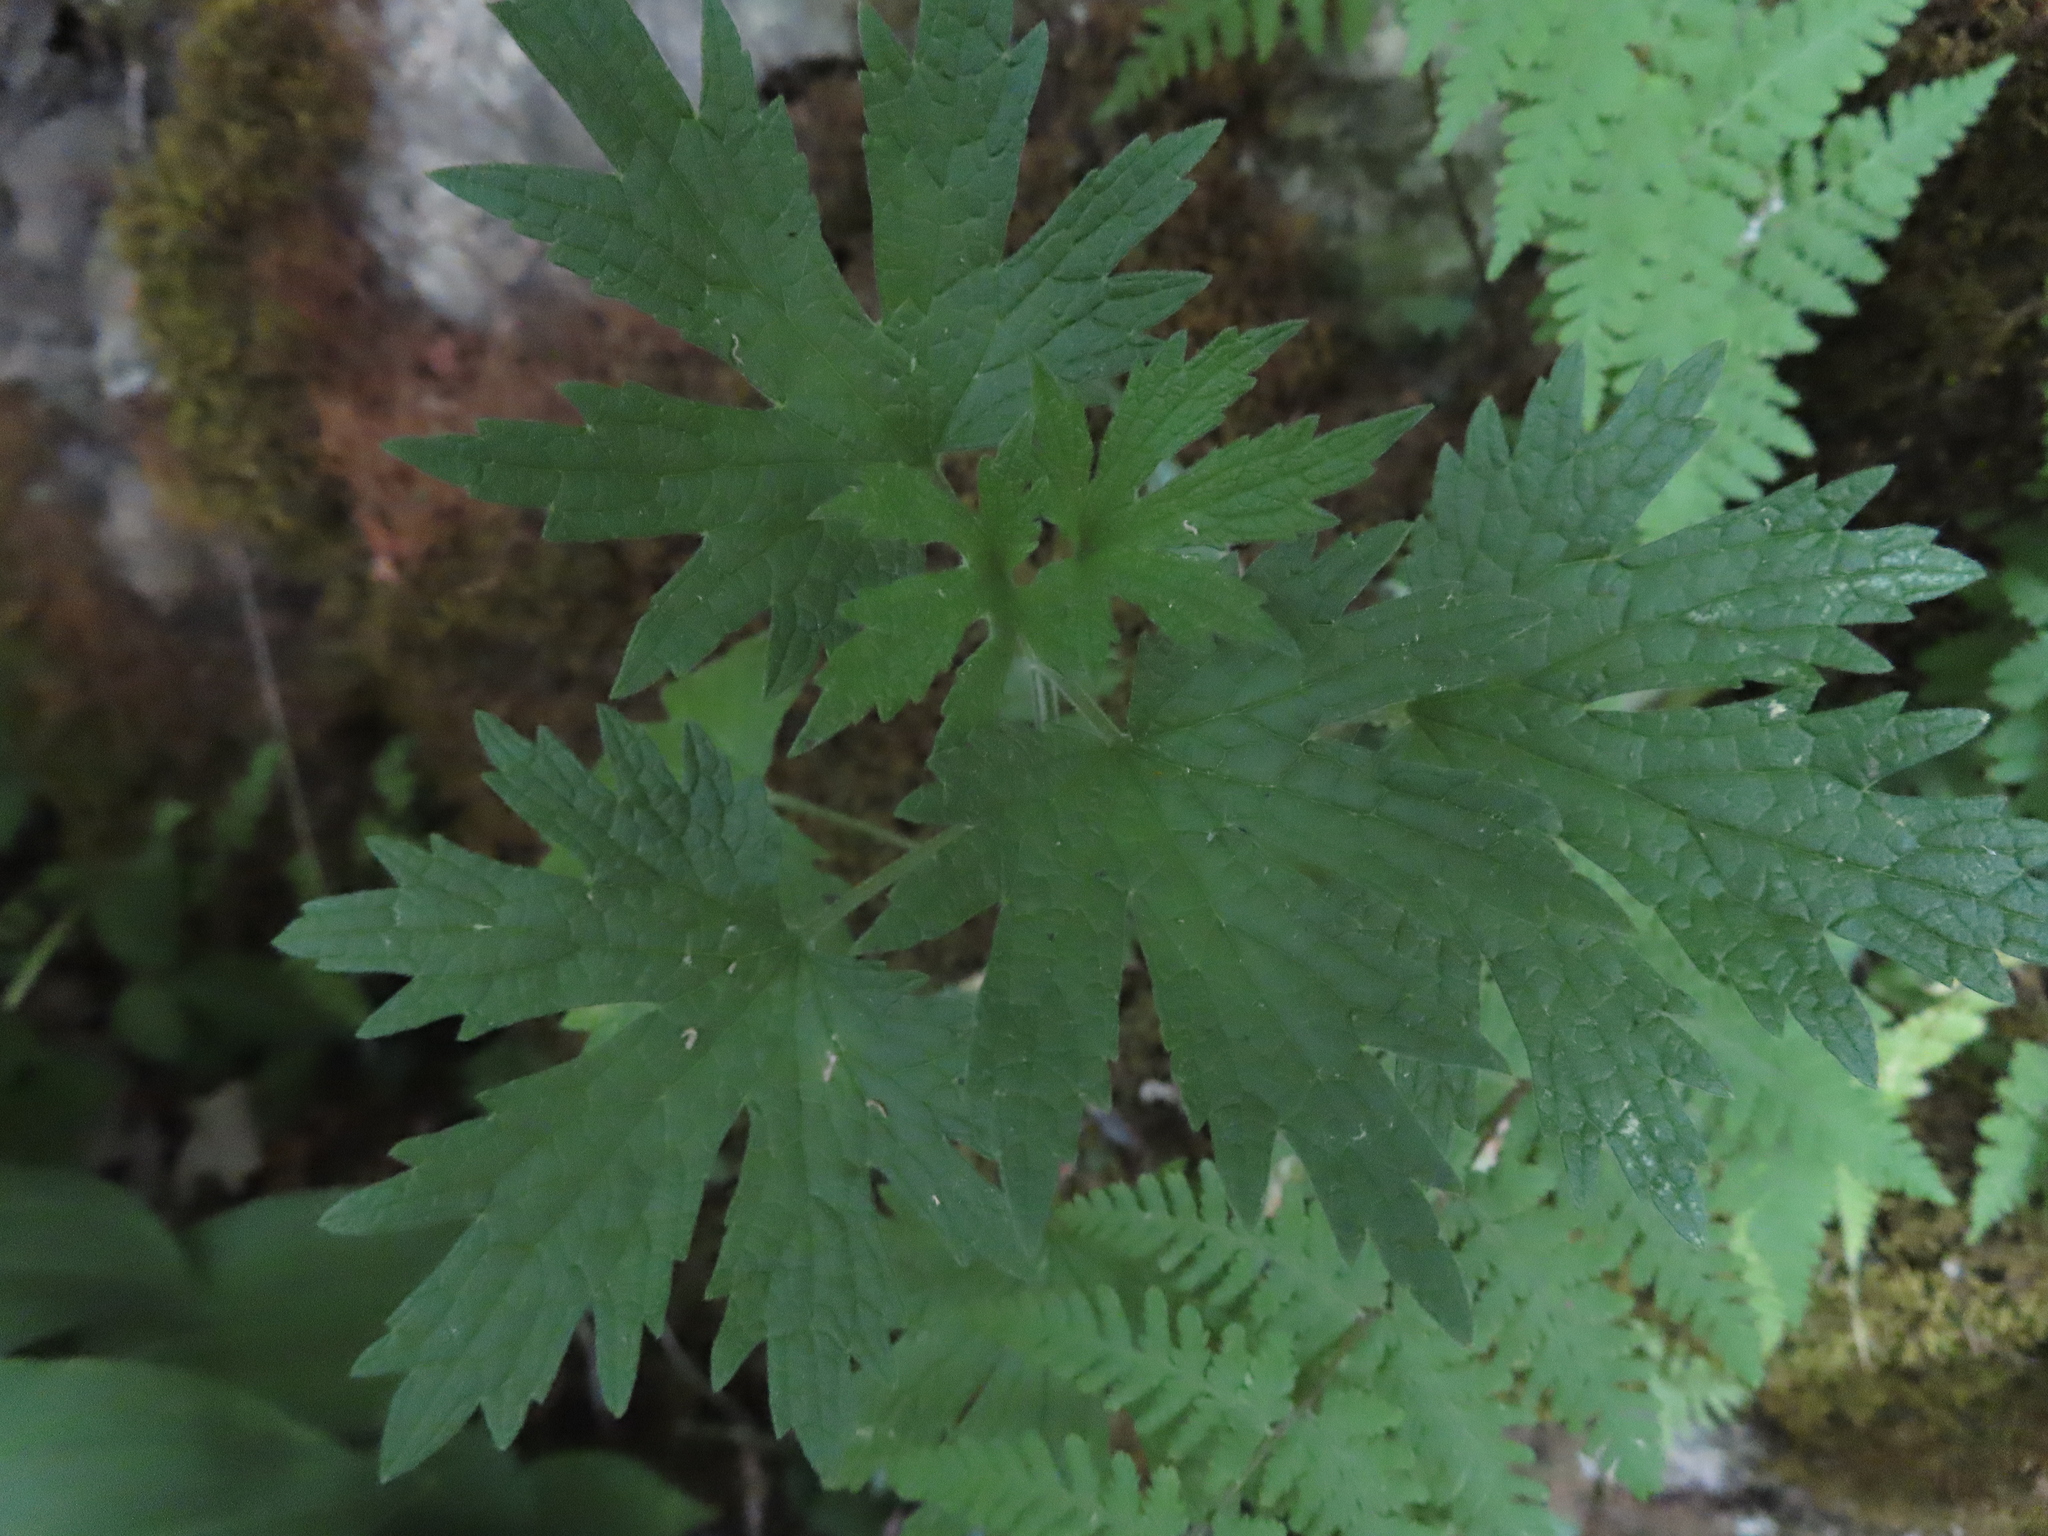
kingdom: Plantae
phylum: Tracheophyta
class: Magnoliopsida
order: Lamiales
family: Lamiaceae
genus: Leonurus
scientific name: Leonurus cardiaca
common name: Motherwort
